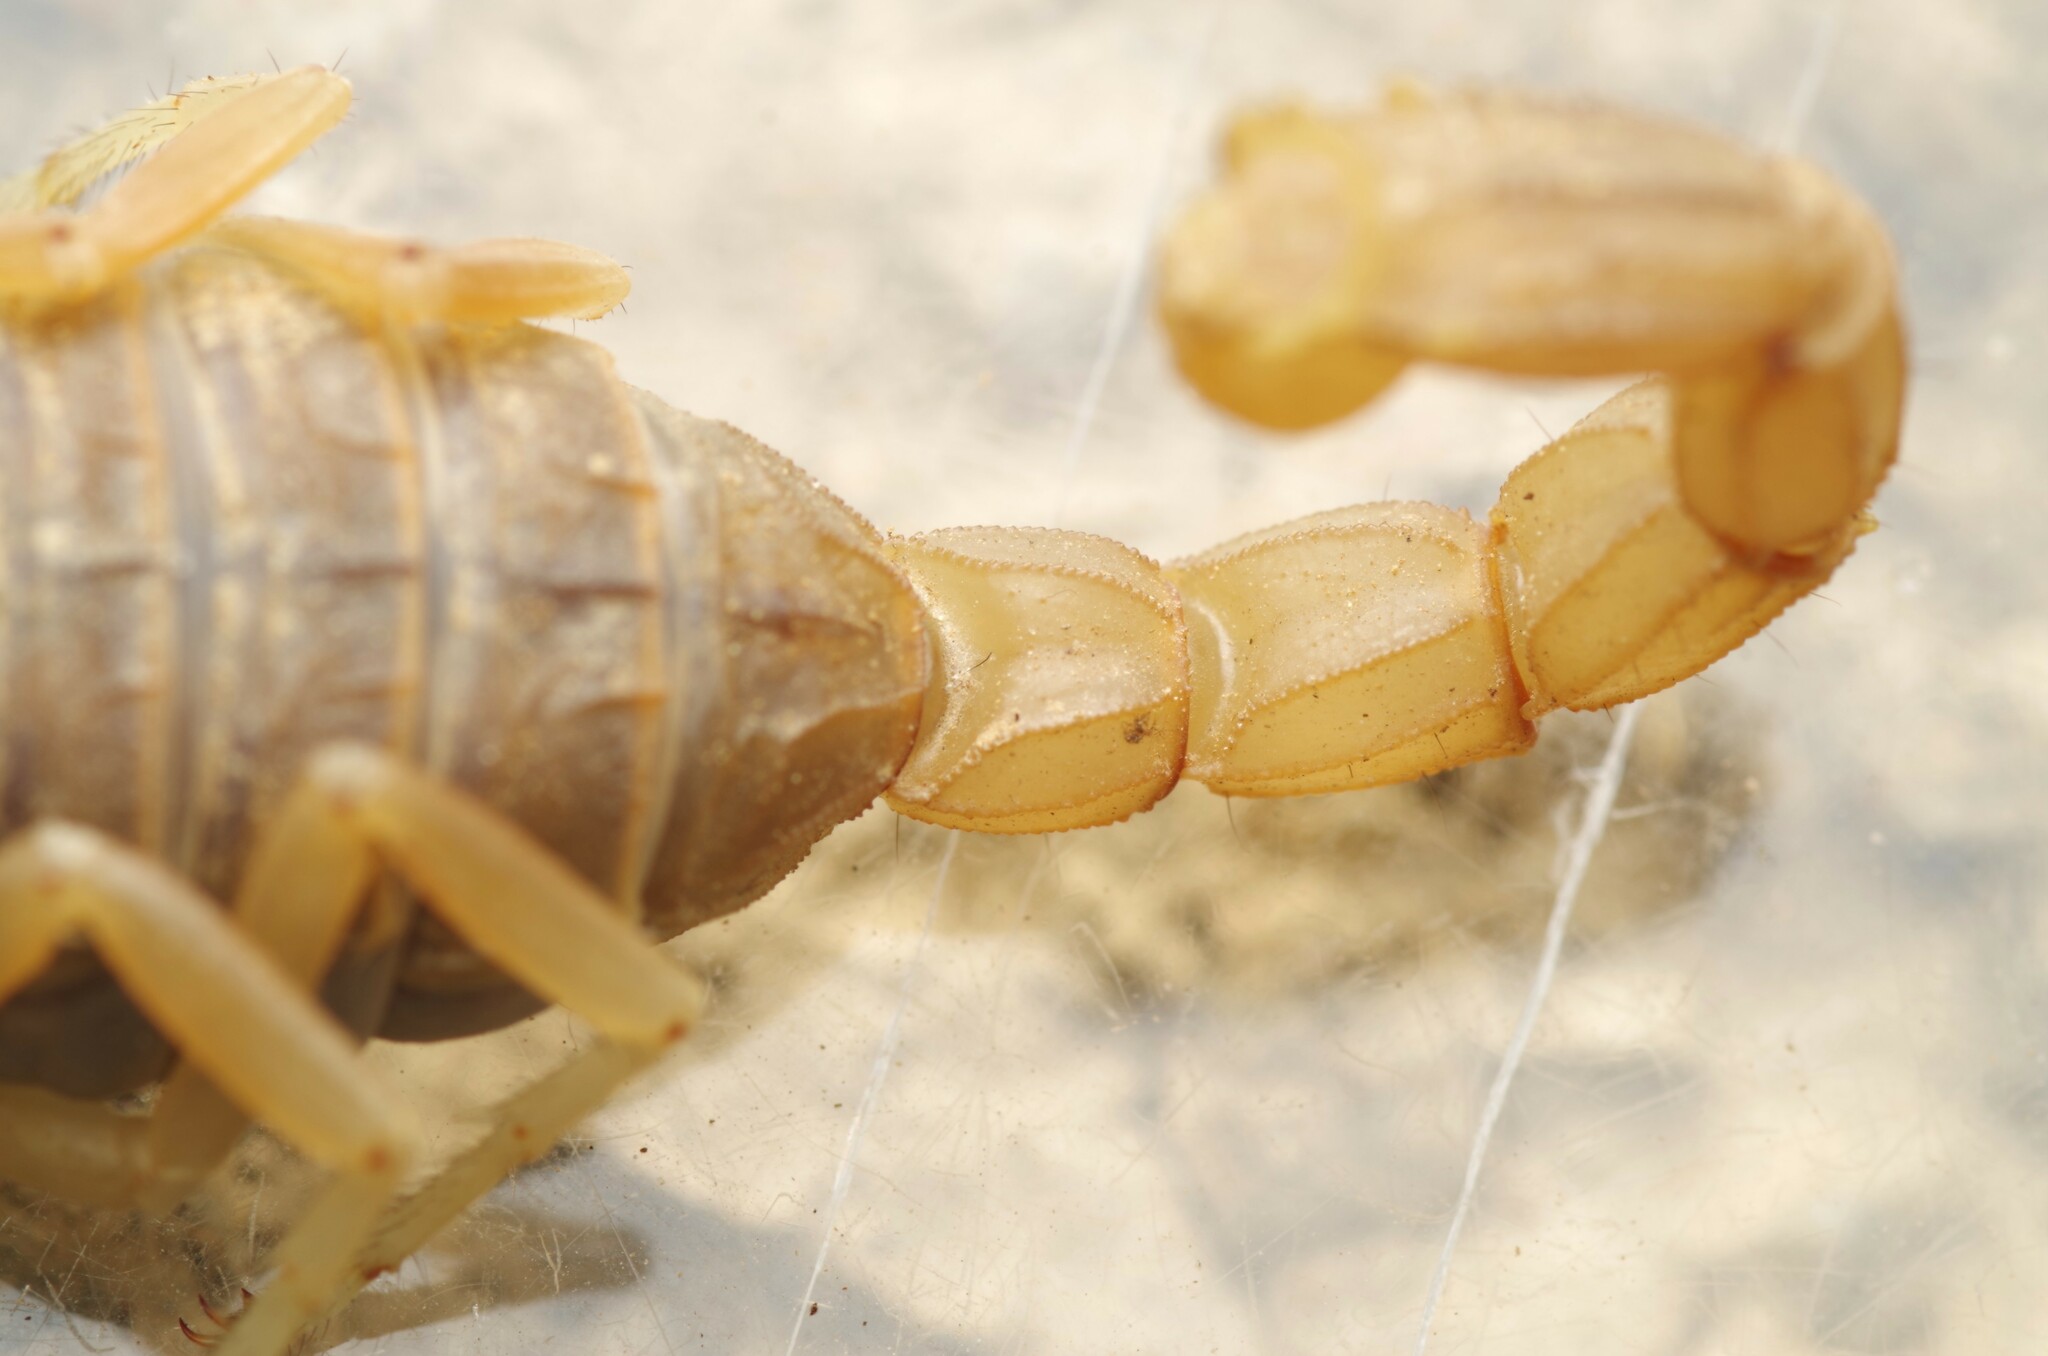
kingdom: Animalia
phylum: Arthropoda
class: Arachnida
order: Scorpiones
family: Buthidae
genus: Buthus
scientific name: Buthus pyrenaeus
